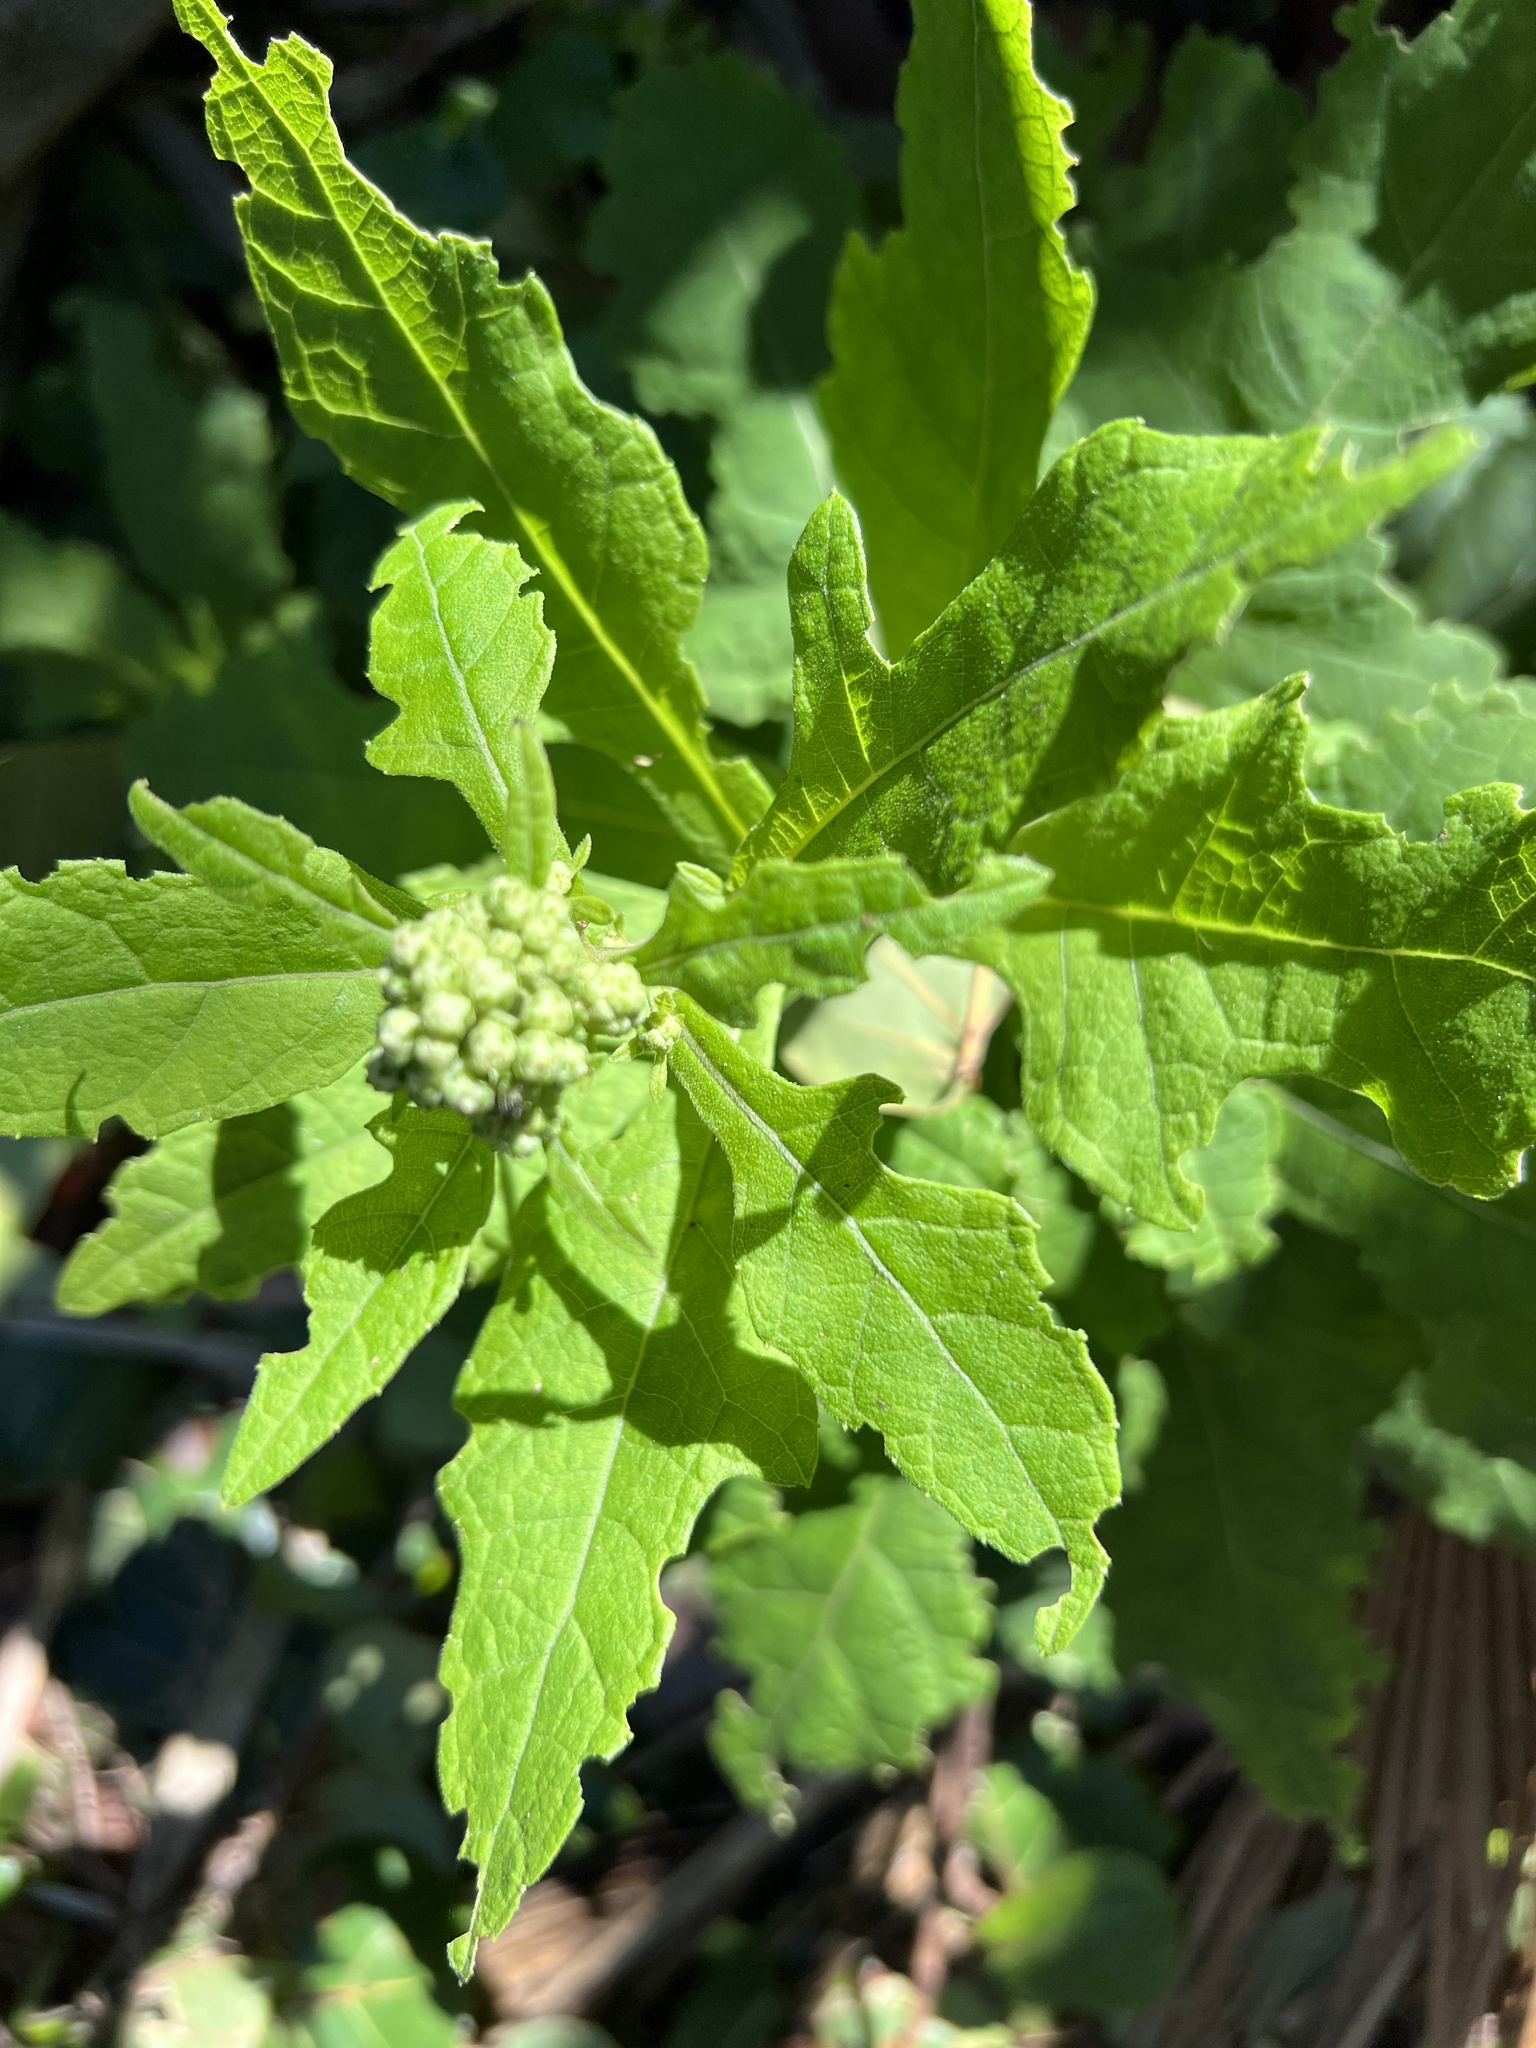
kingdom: Plantae
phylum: Tracheophyta
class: Magnoliopsida
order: Asterales
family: Asteraceae
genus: Verbesina
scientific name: Verbesina virginica
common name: Frostweed
